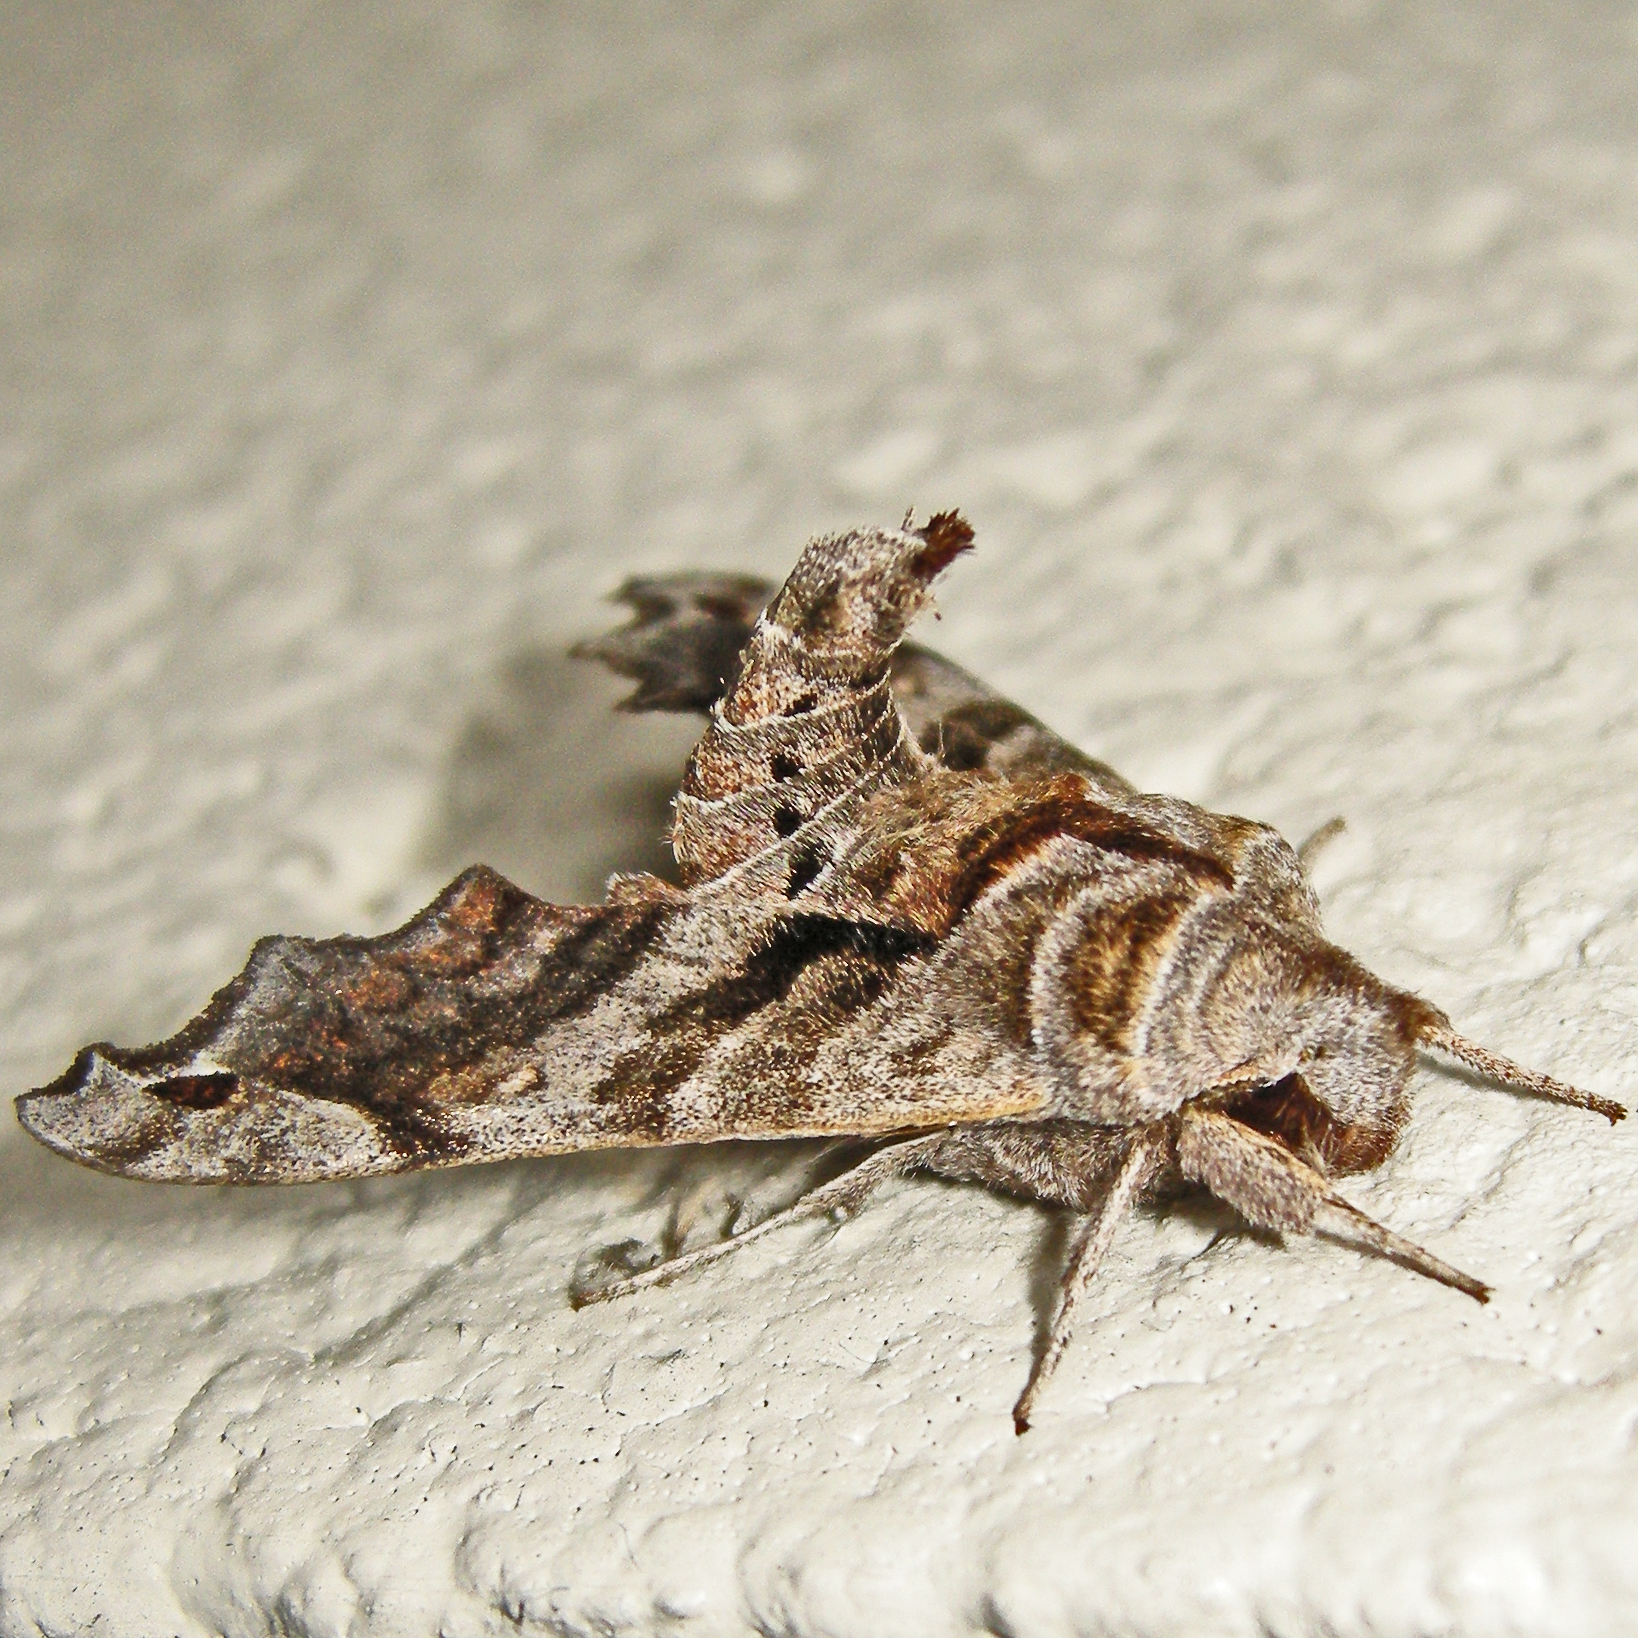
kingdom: Animalia
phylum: Arthropoda
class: Insecta
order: Lepidoptera
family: Sphingidae
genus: Deidamia
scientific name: Deidamia inscriptum
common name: Lettered sphinx
